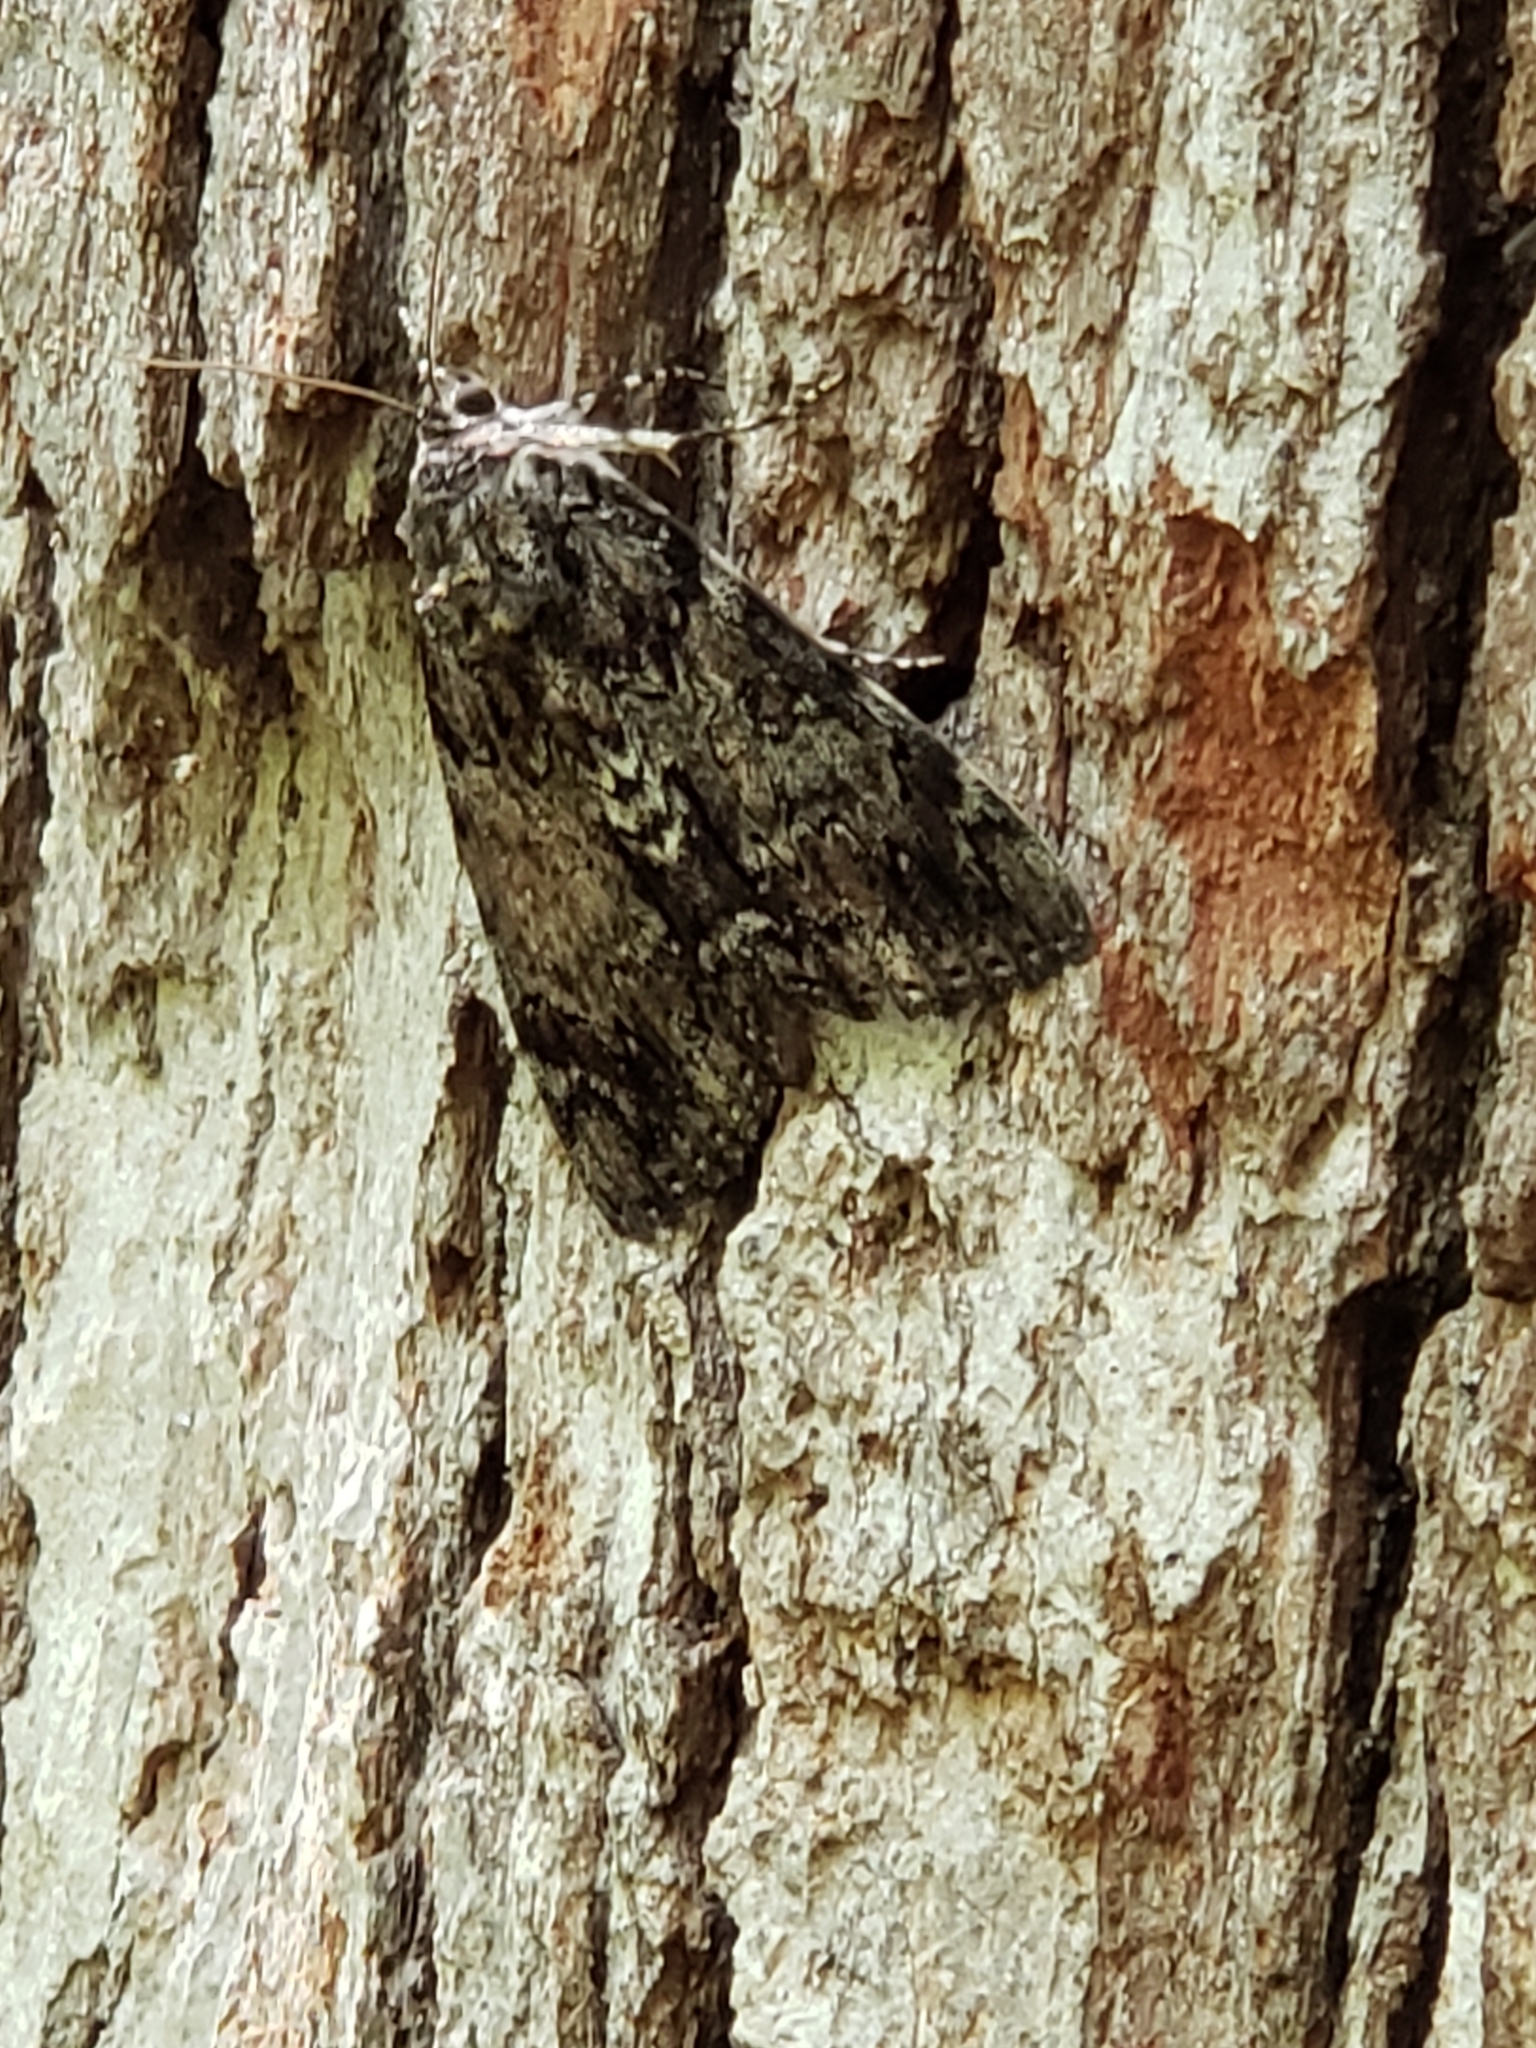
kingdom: Animalia
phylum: Arthropoda
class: Insecta
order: Lepidoptera
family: Erebidae
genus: Catocala
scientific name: Catocala lacrymosa
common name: Tearful underwing
